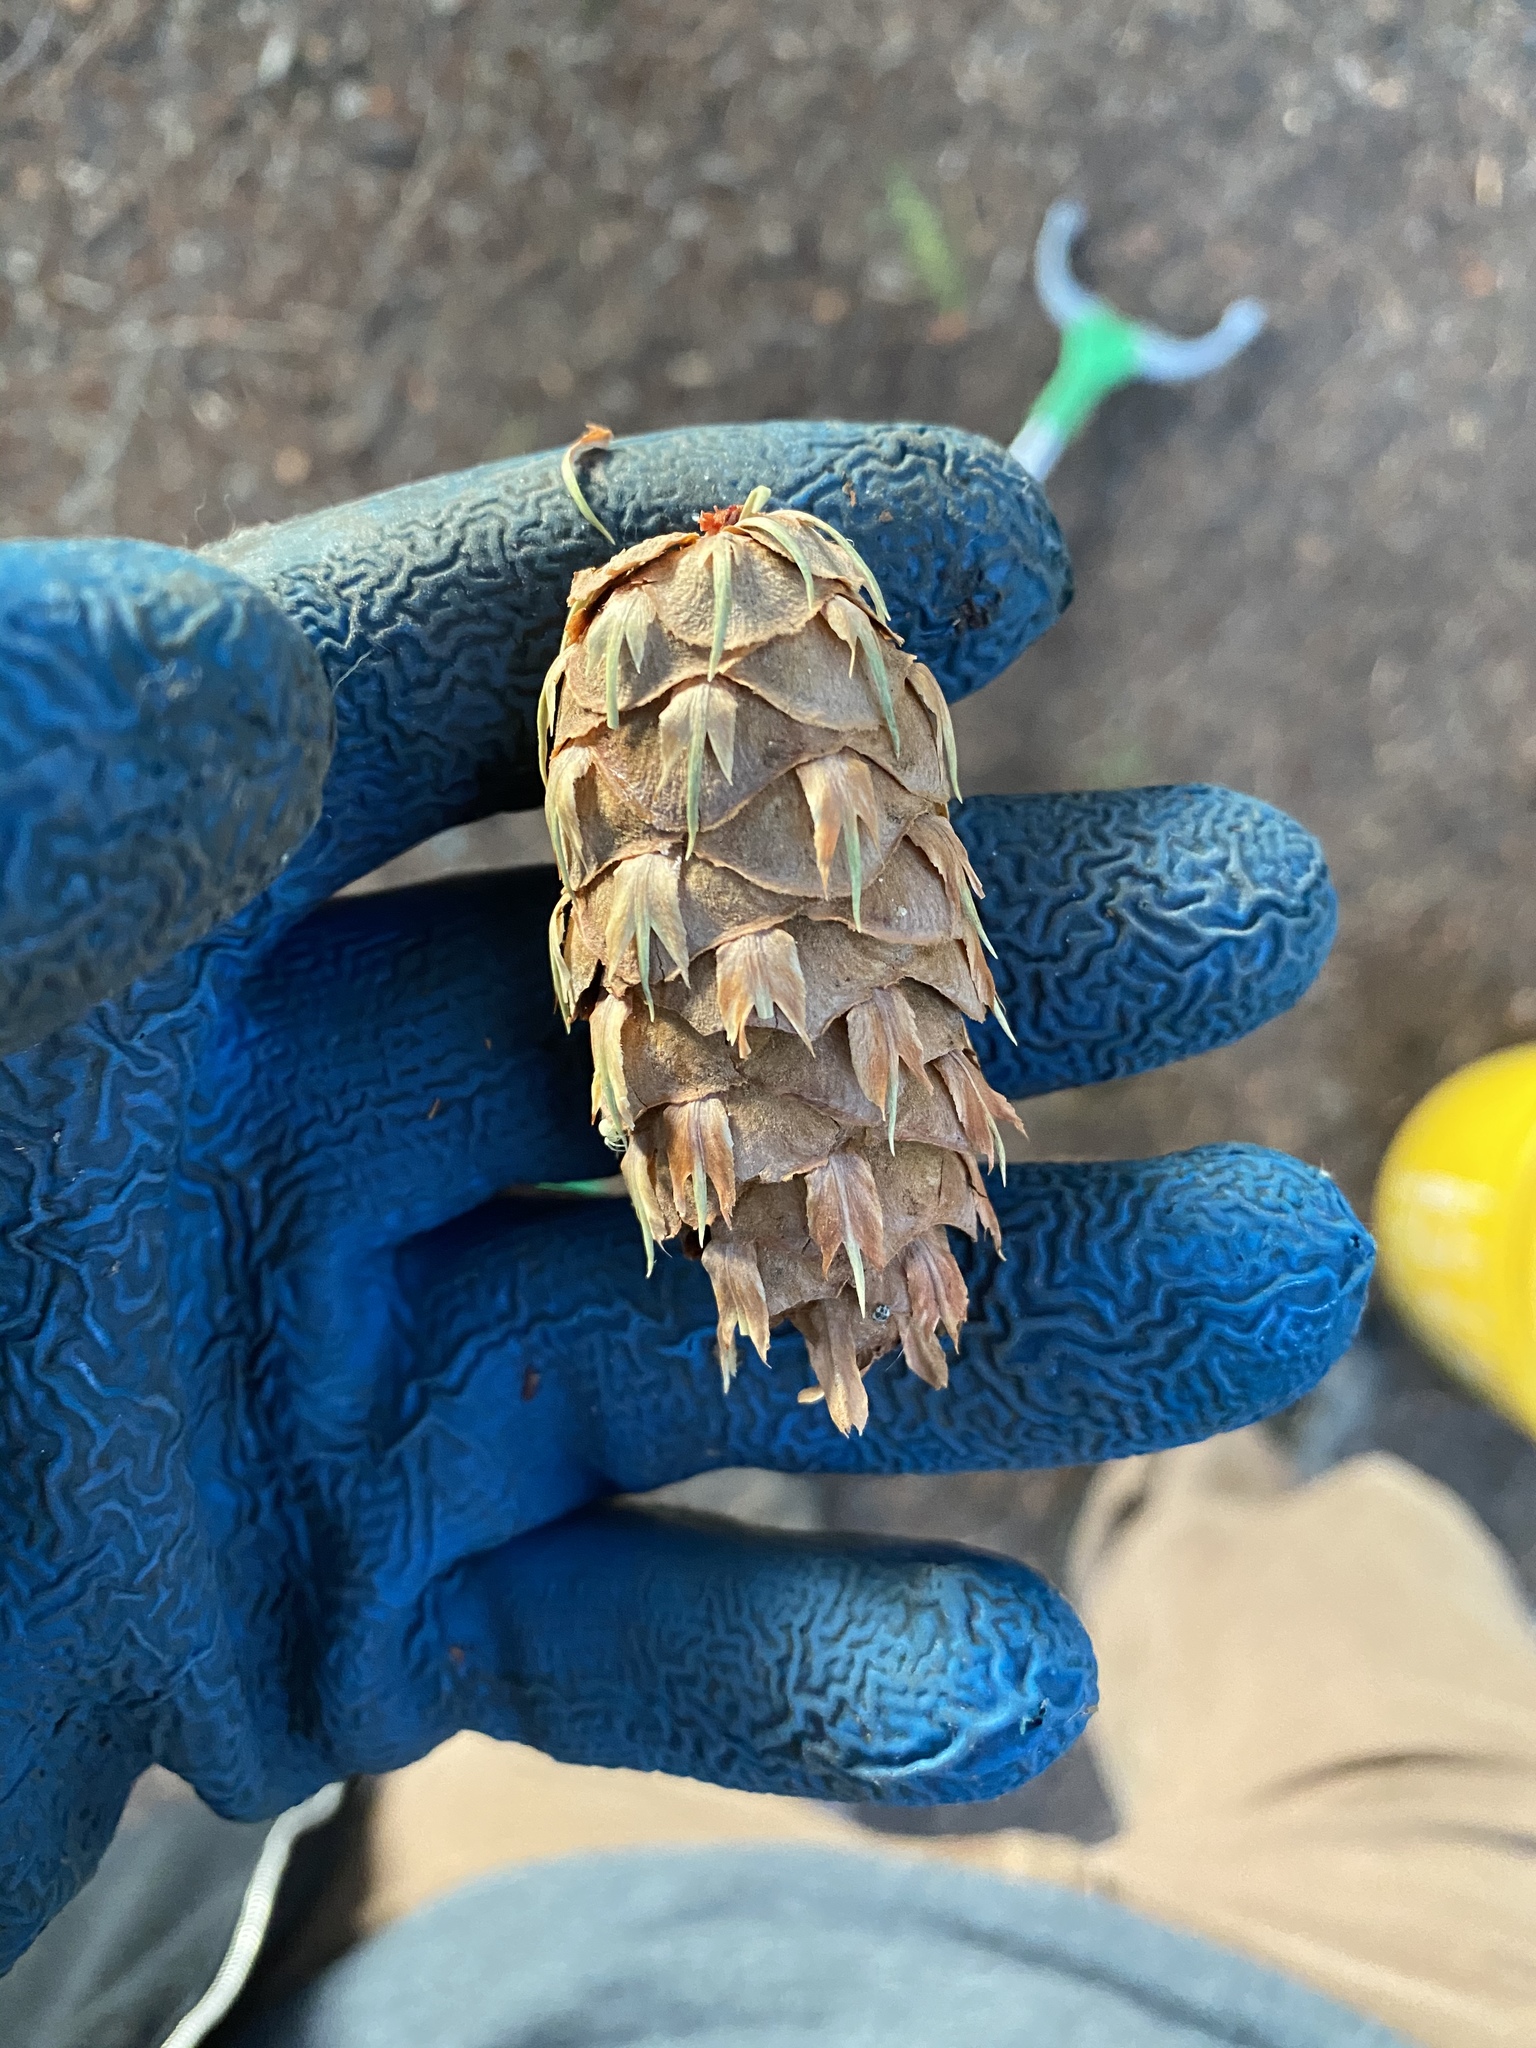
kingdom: Plantae
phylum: Tracheophyta
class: Pinopsida
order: Pinales
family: Pinaceae
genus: Pseudotsuga
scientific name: Pseudotsuga menziesii
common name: Douglas fir
